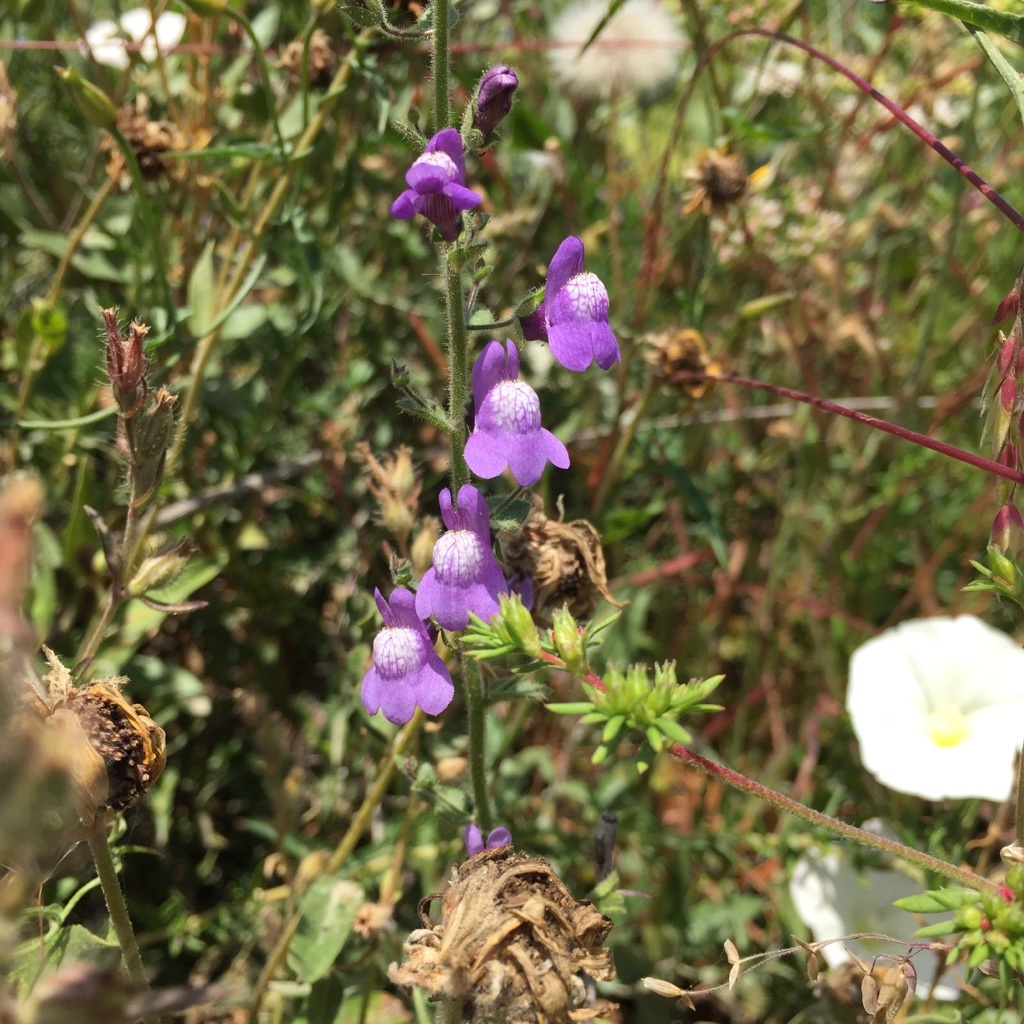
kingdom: Plantae
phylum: Tracheophyta
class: Magnoliopsida
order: Lamiales
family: Plantaginaceae
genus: Sairocarpus
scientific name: Sairocarpus nuttallianus
